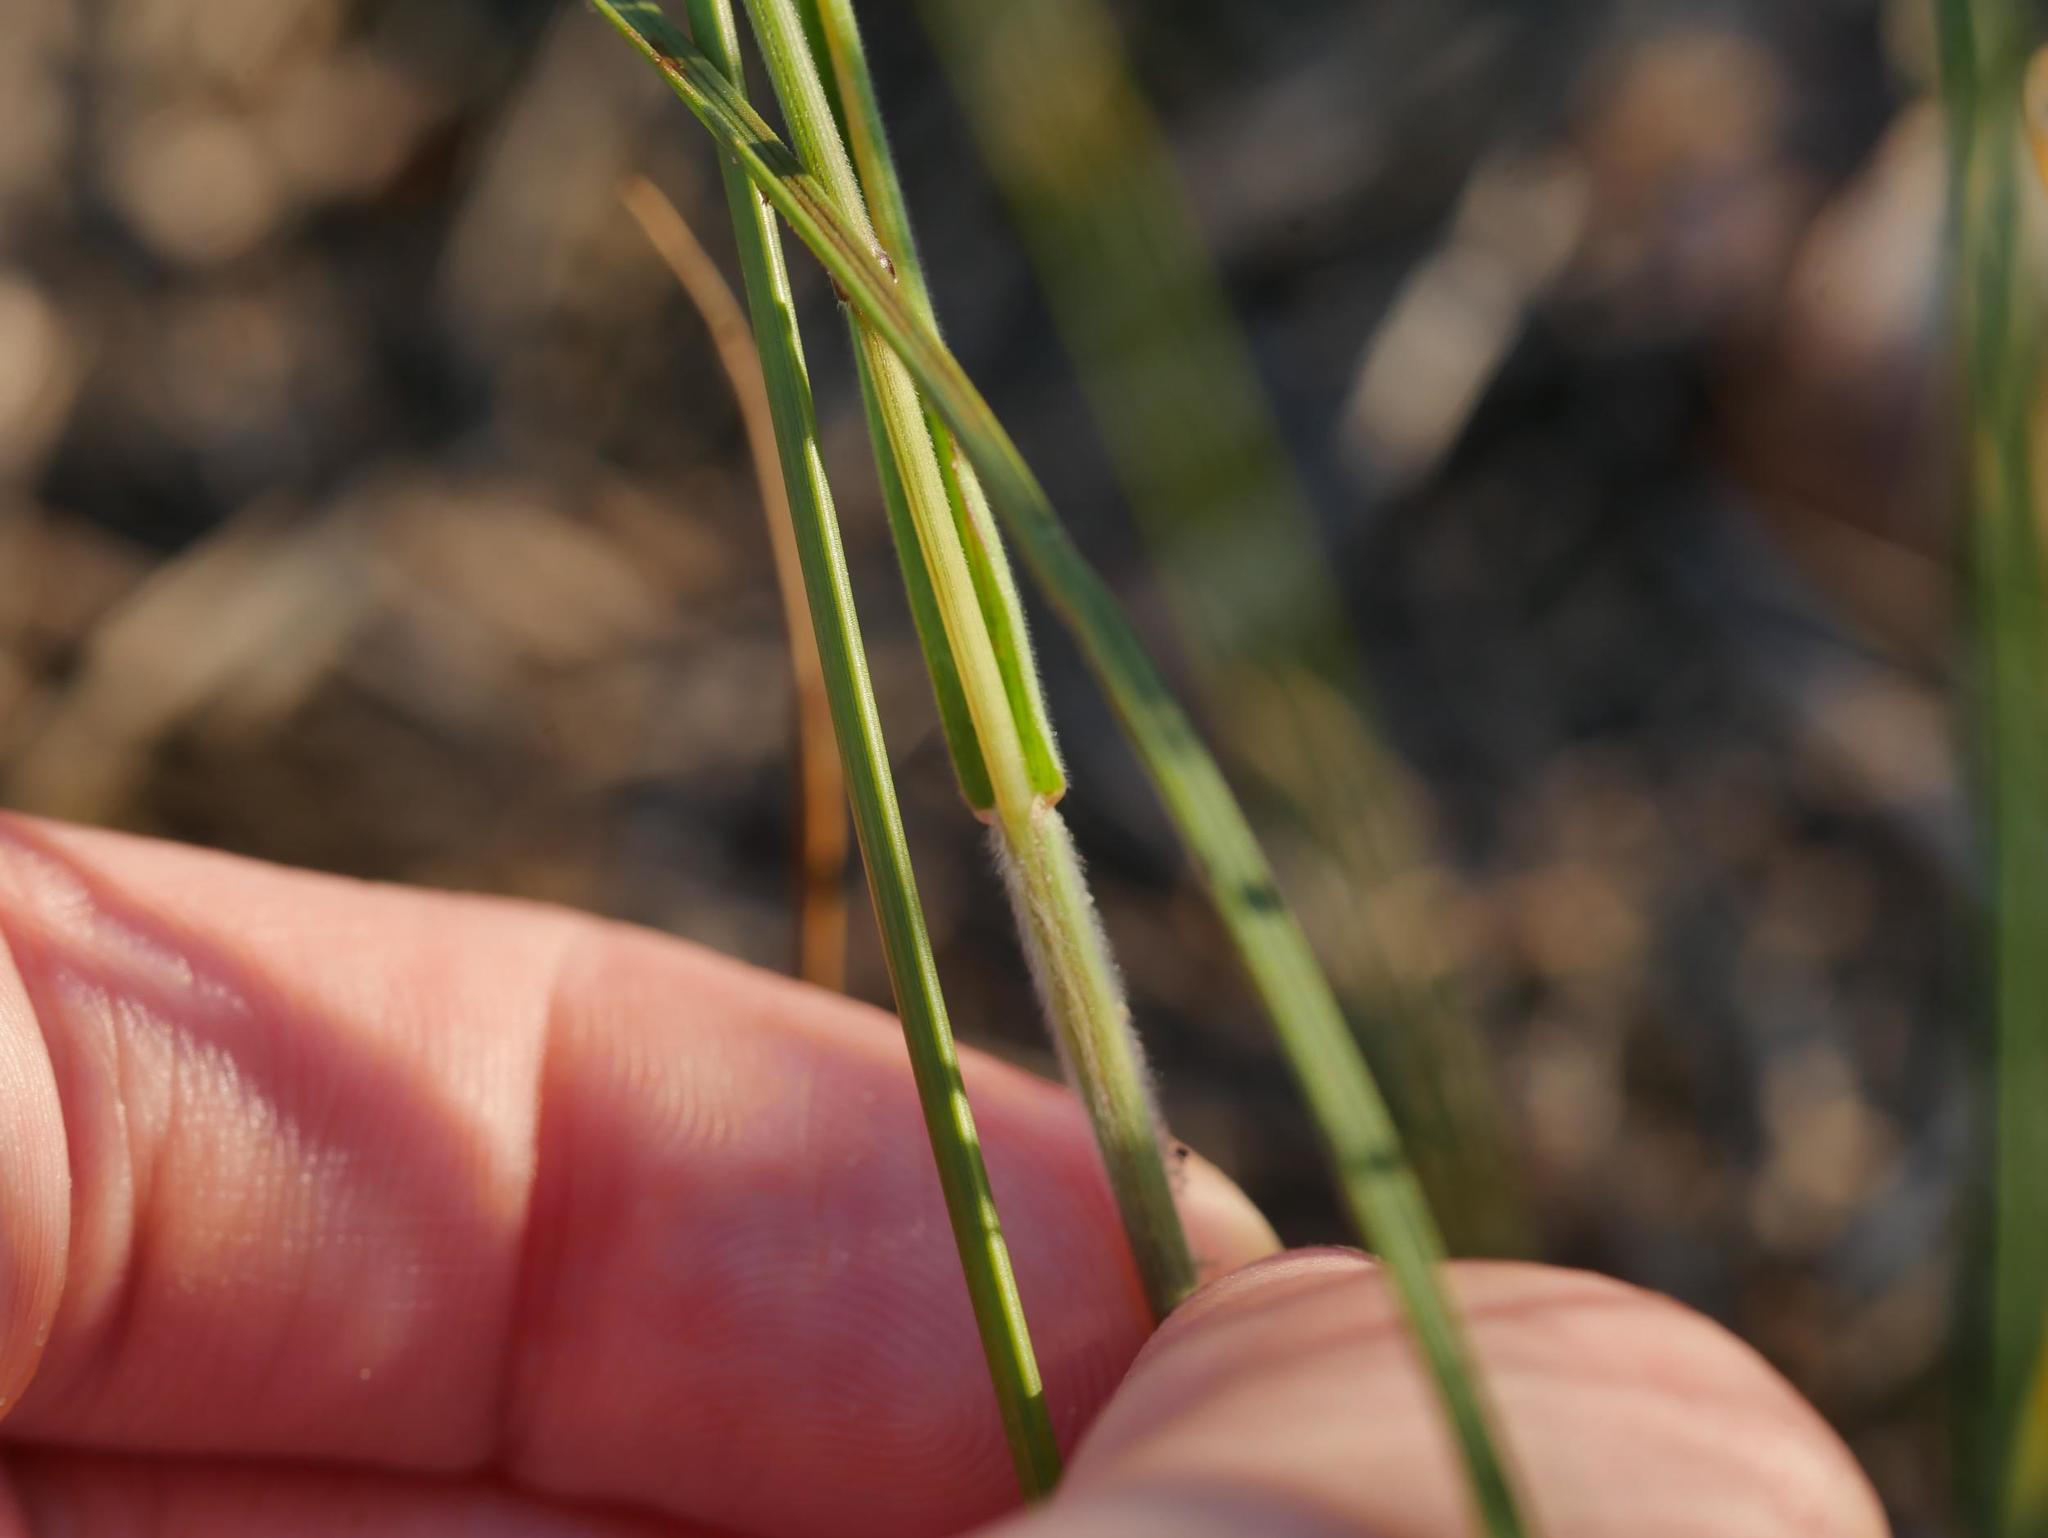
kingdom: Plantae
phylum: Tracheophyta
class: Liliopsida
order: Poales
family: Poaceae
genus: Bromus
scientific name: Bromus hordeaceus
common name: Soft brome
